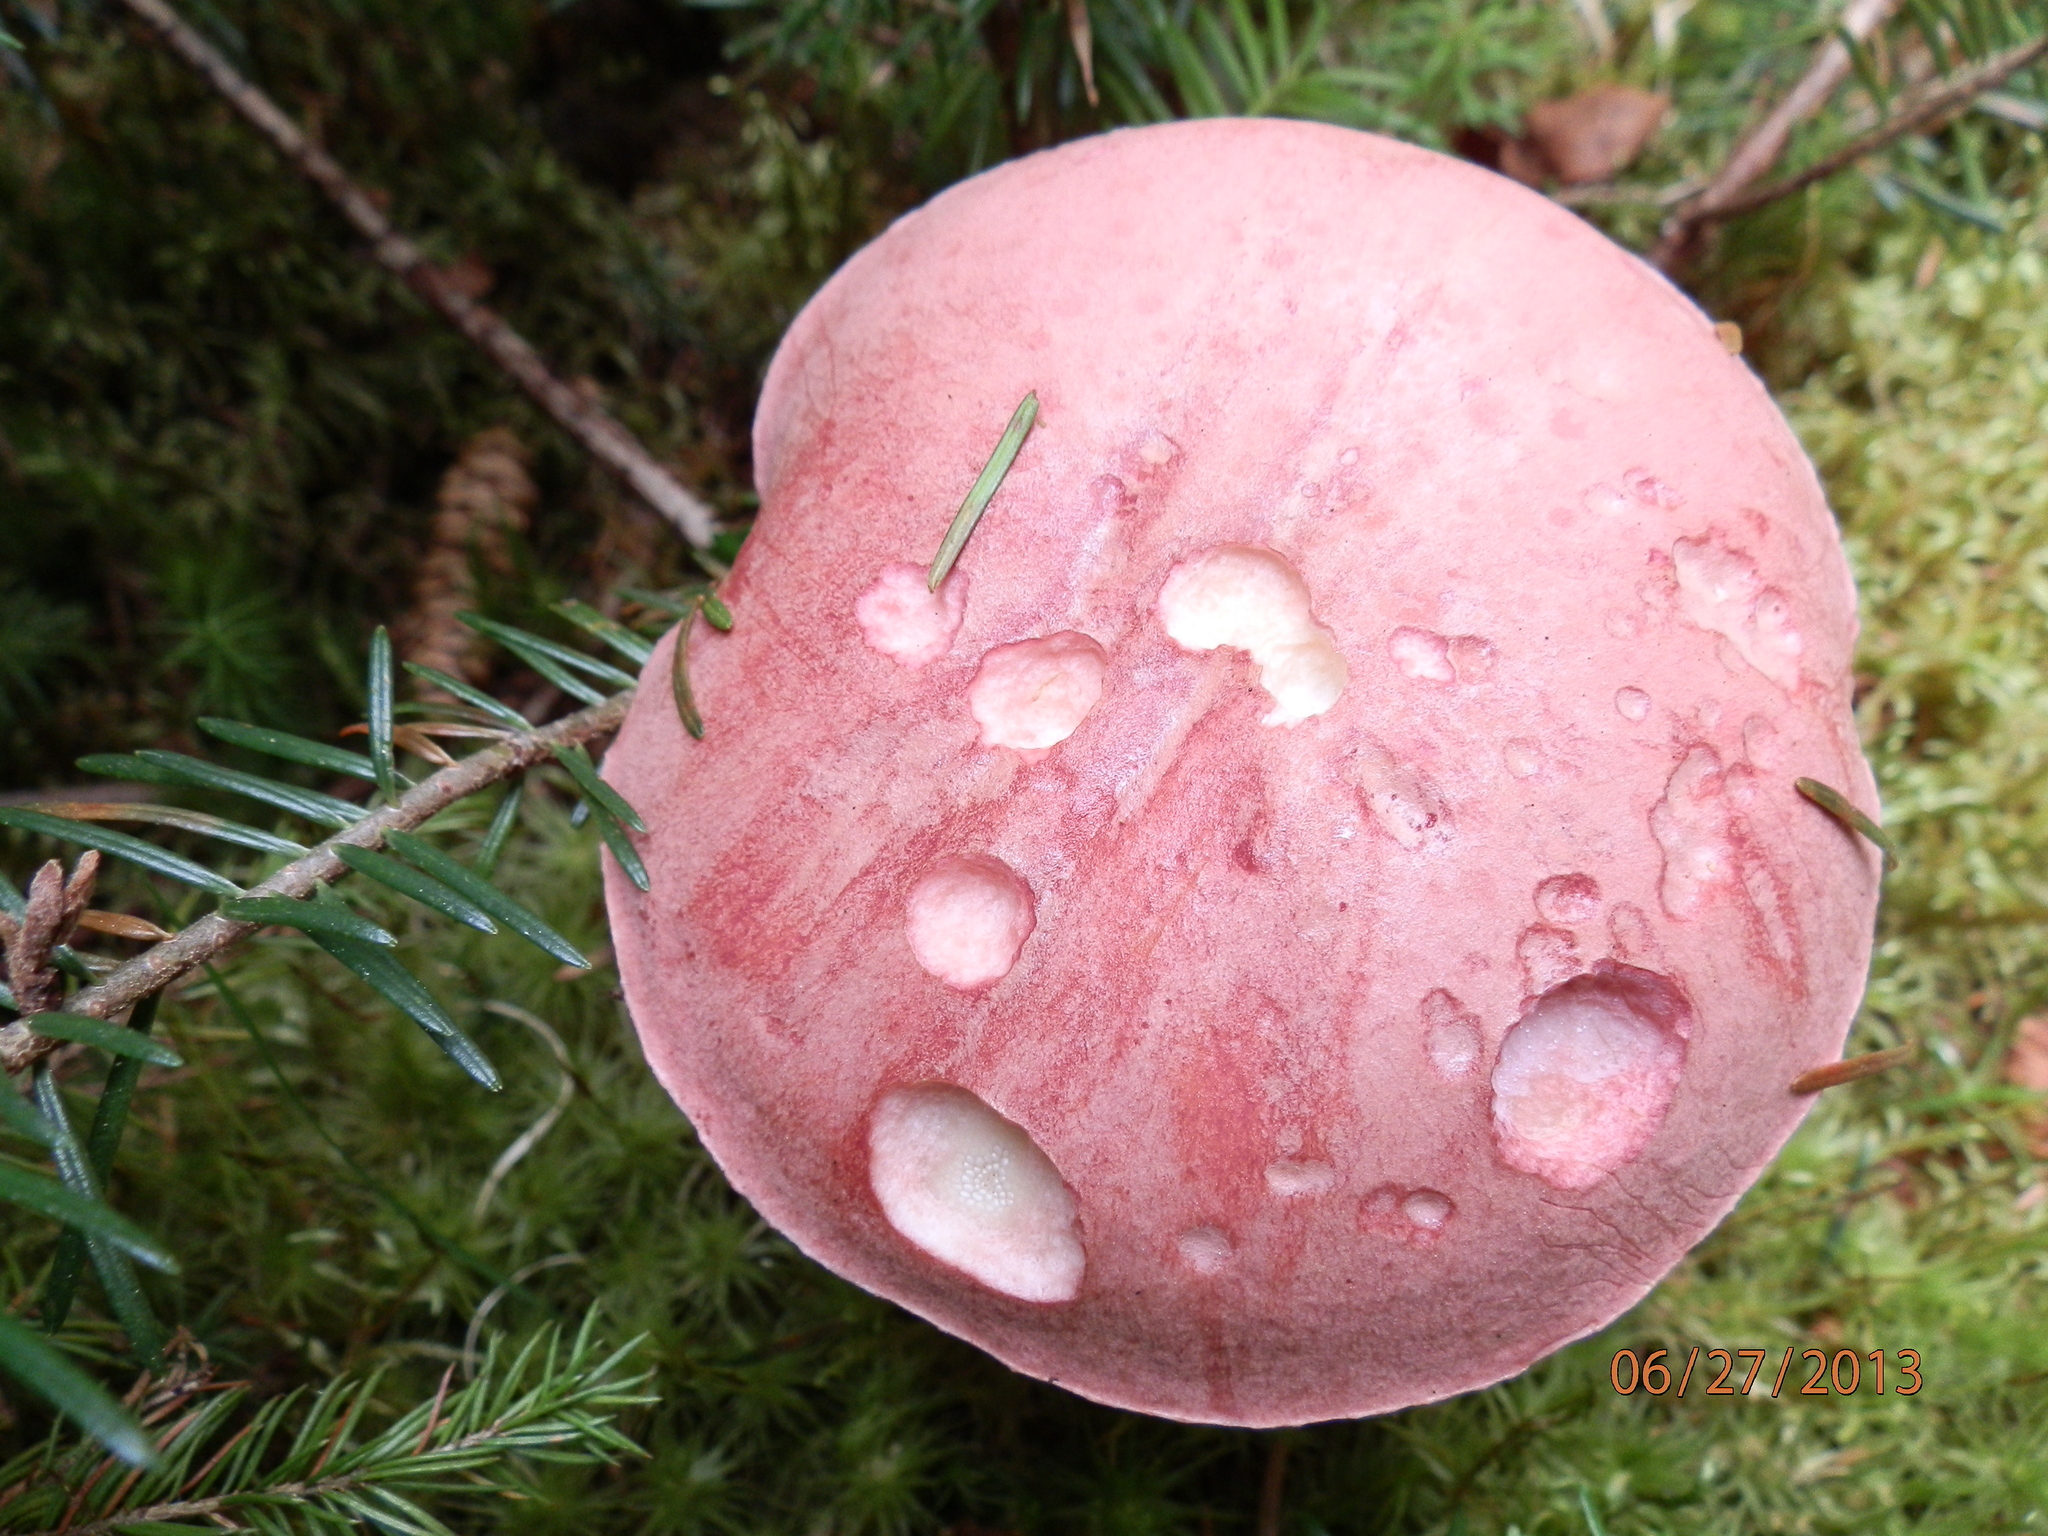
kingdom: Fungi
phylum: Basidiomycota
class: Agaricomycetes
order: Boletales
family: Boletaceae
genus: Harrya
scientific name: Harrya chromipes
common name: Chrome-footed bolete
